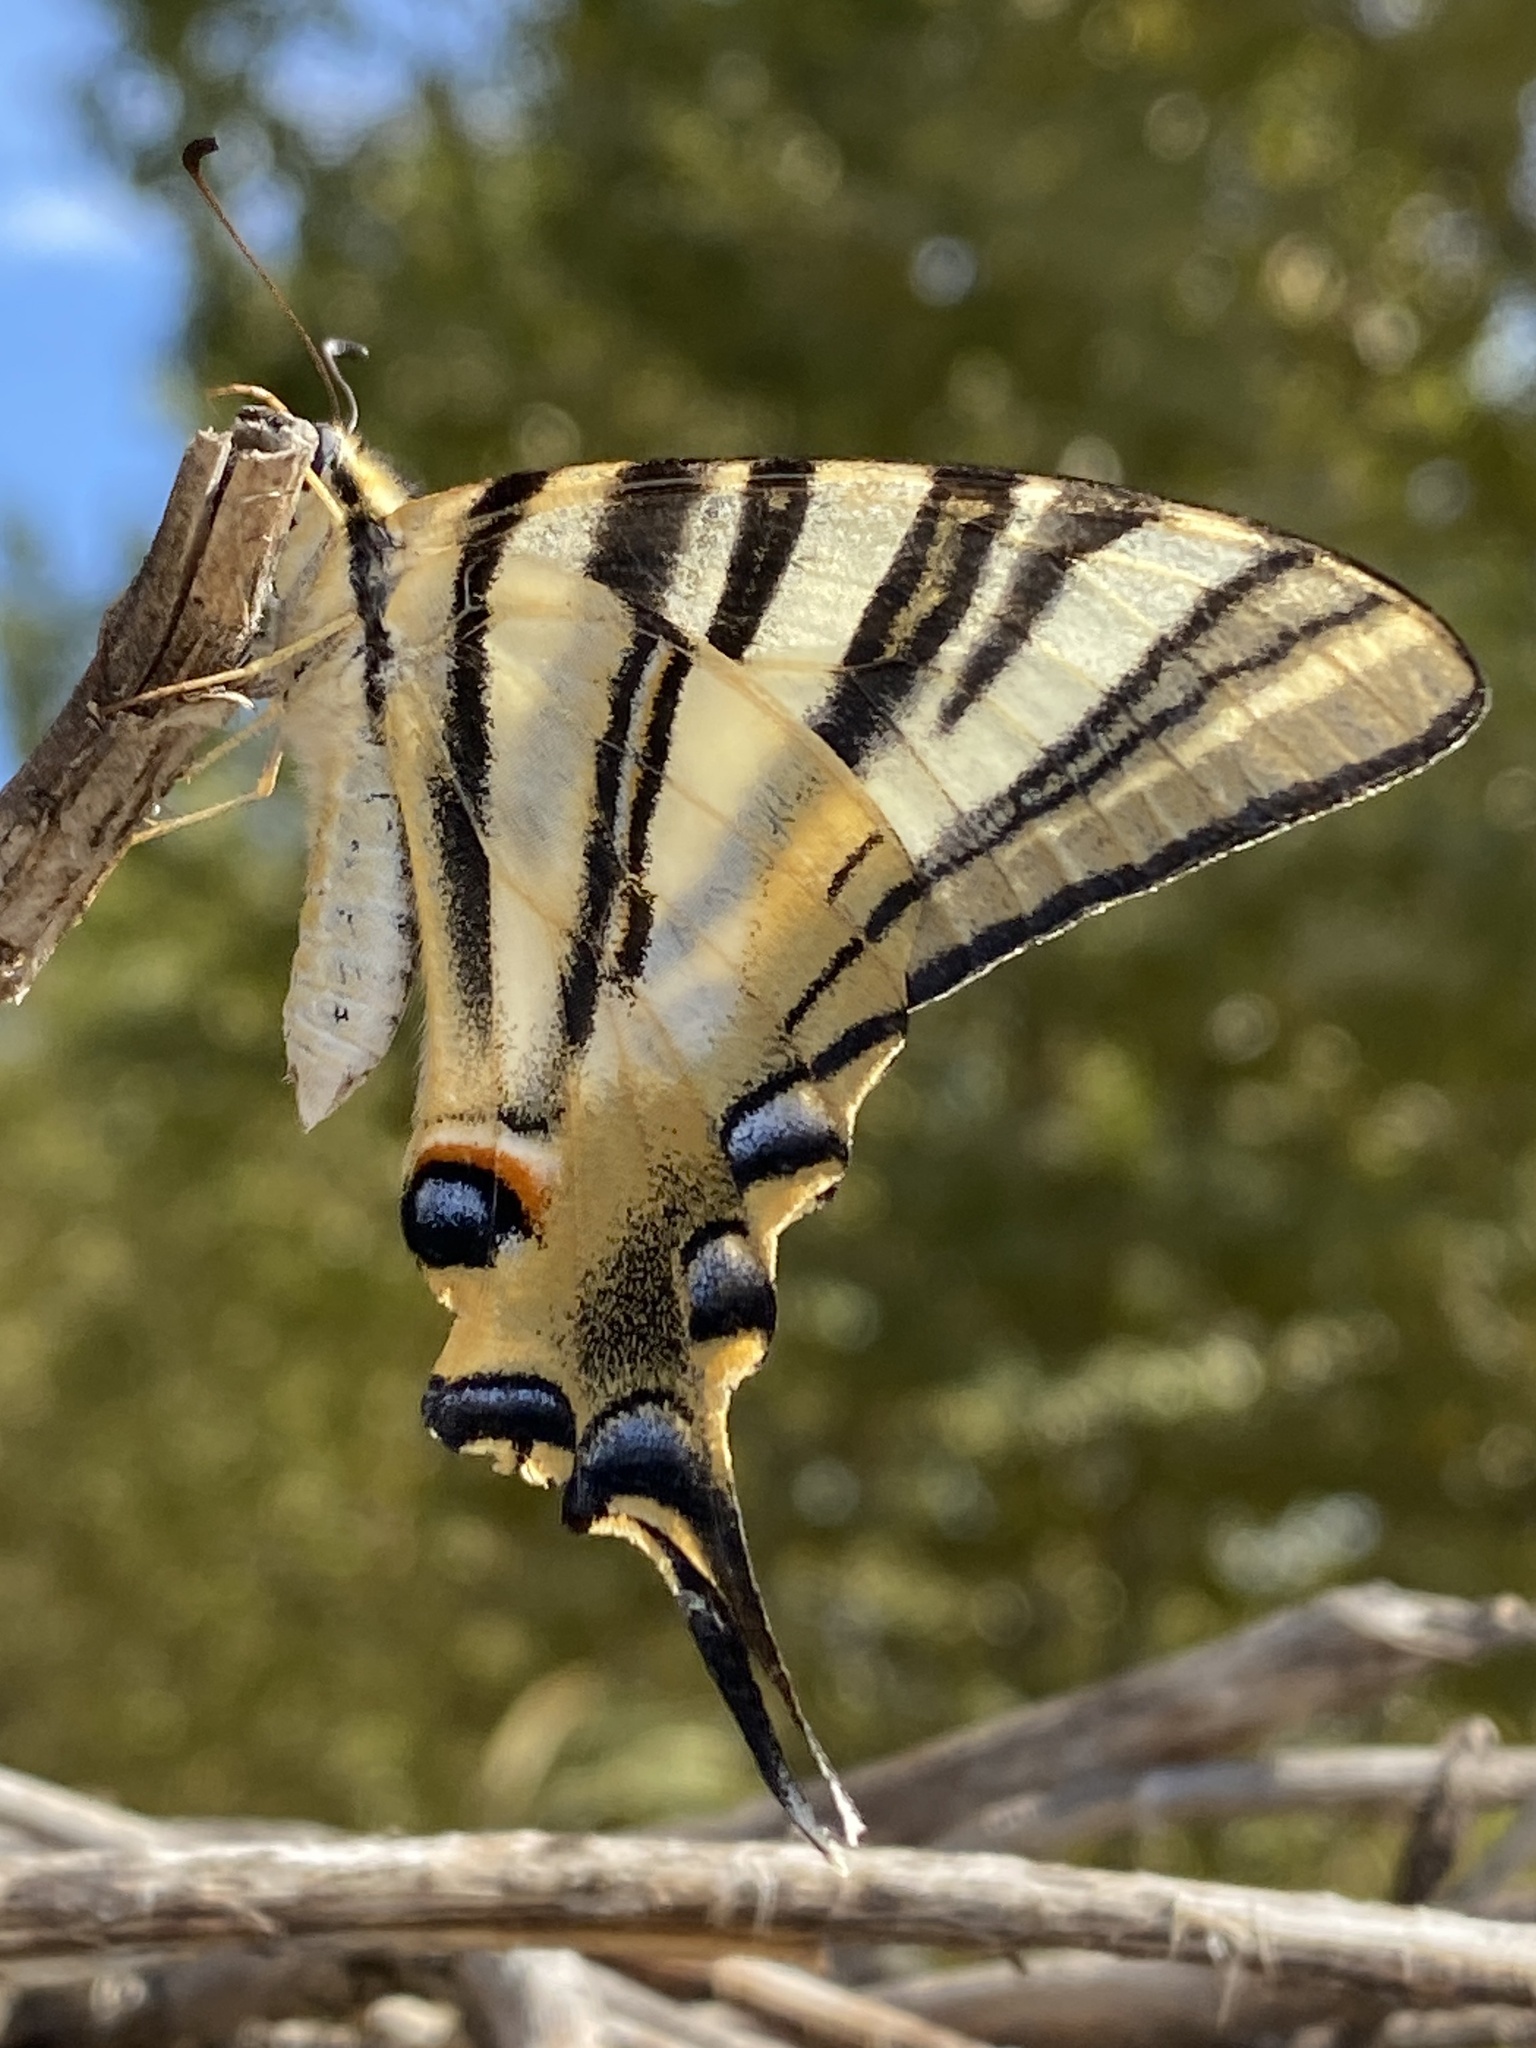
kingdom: Animalia
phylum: Arthropoda
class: Insecta
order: Lepidoptera
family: Papilionidae
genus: Iphiclides
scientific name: Iphiclides feisthamelii
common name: Iberian scarce swallowtail
